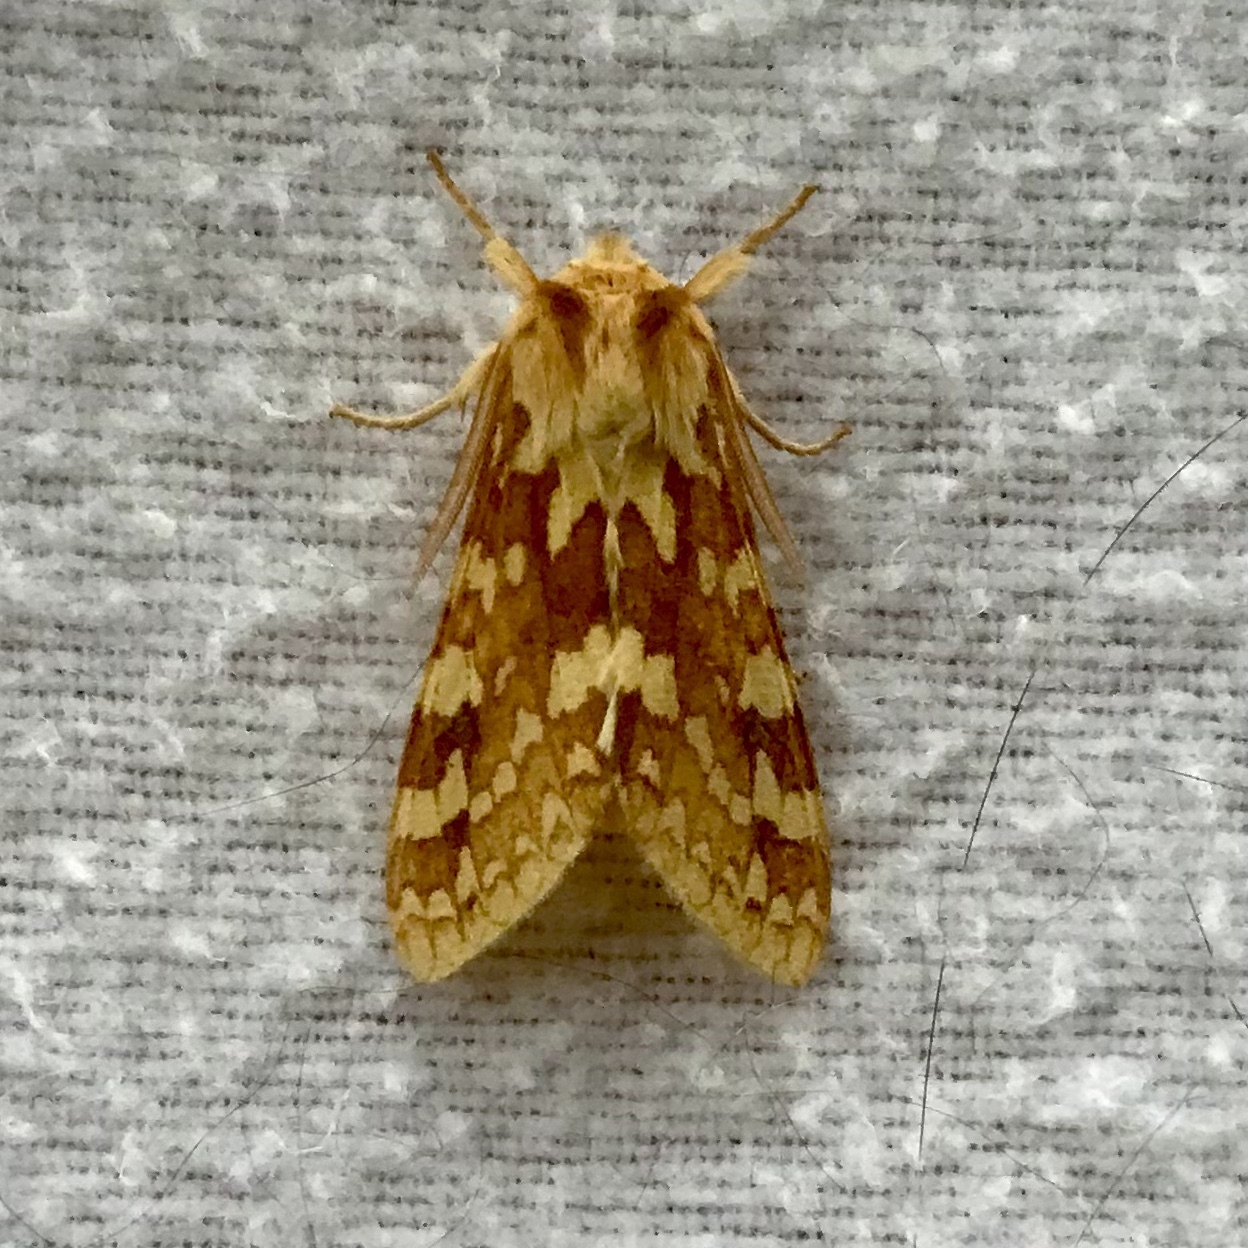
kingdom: Animalia
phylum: Arthropoda
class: Insecta
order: Lepidoptera
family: Erebidae
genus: Lophocampa
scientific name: Lophocampa maculata
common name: Spotted tussock moth
